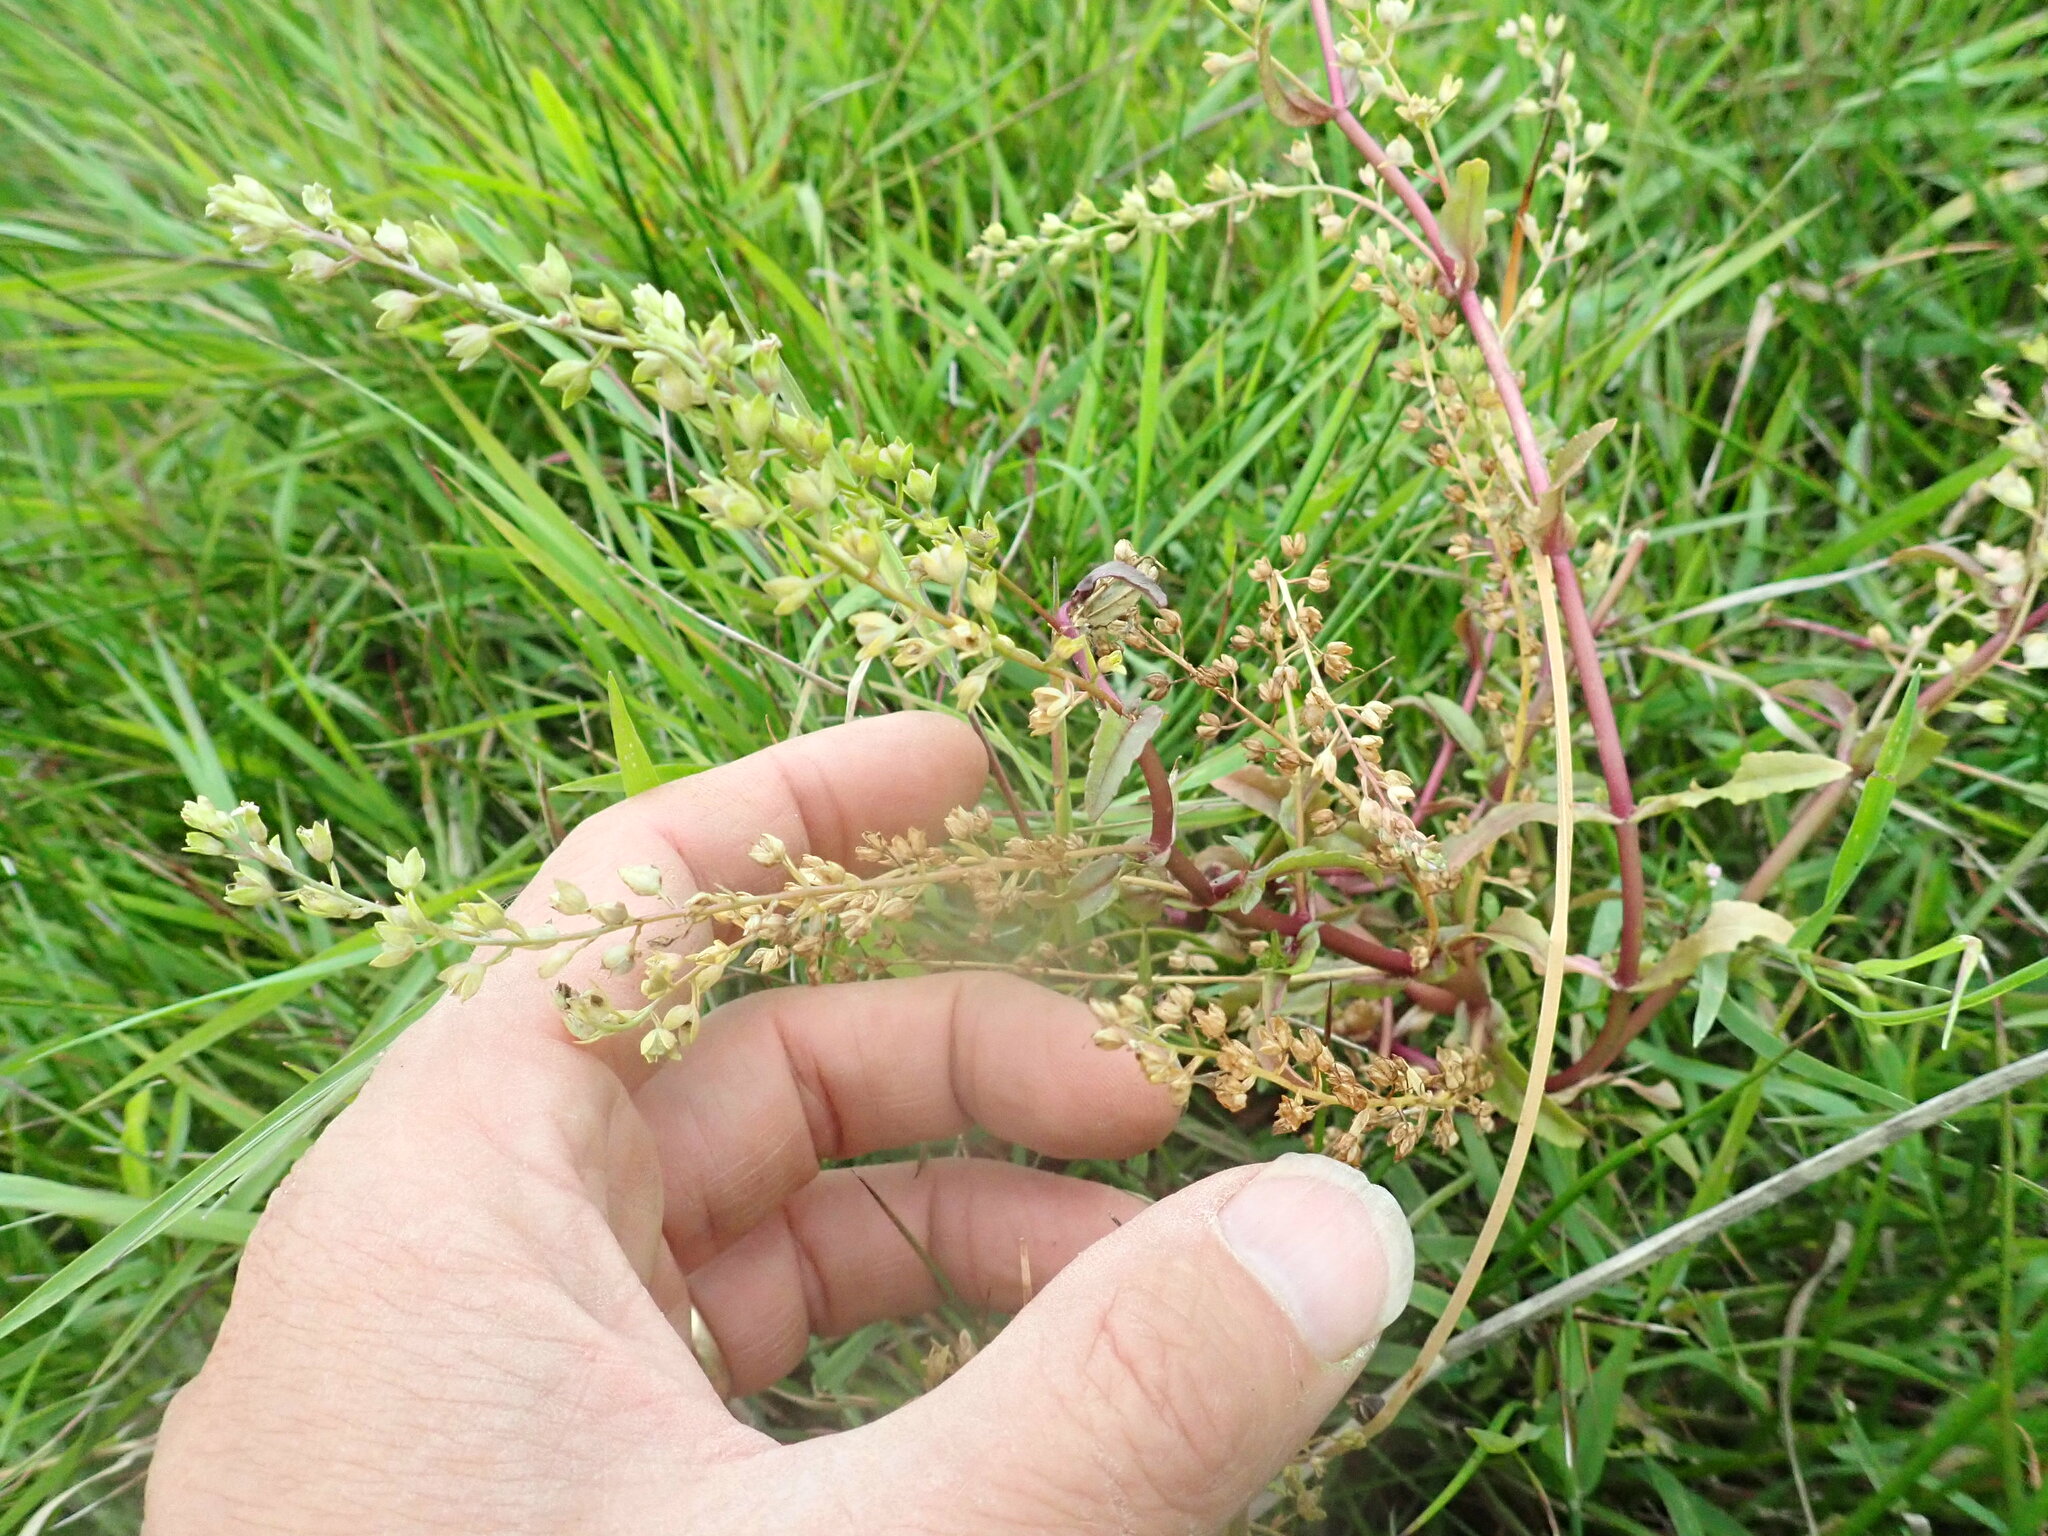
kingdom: Plantae
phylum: Tracheophyta
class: Magnoliopsida
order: Lamiales
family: Plantaginaceae
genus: Veronica
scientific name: Veronica catenata
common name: Pink water-speedwell
